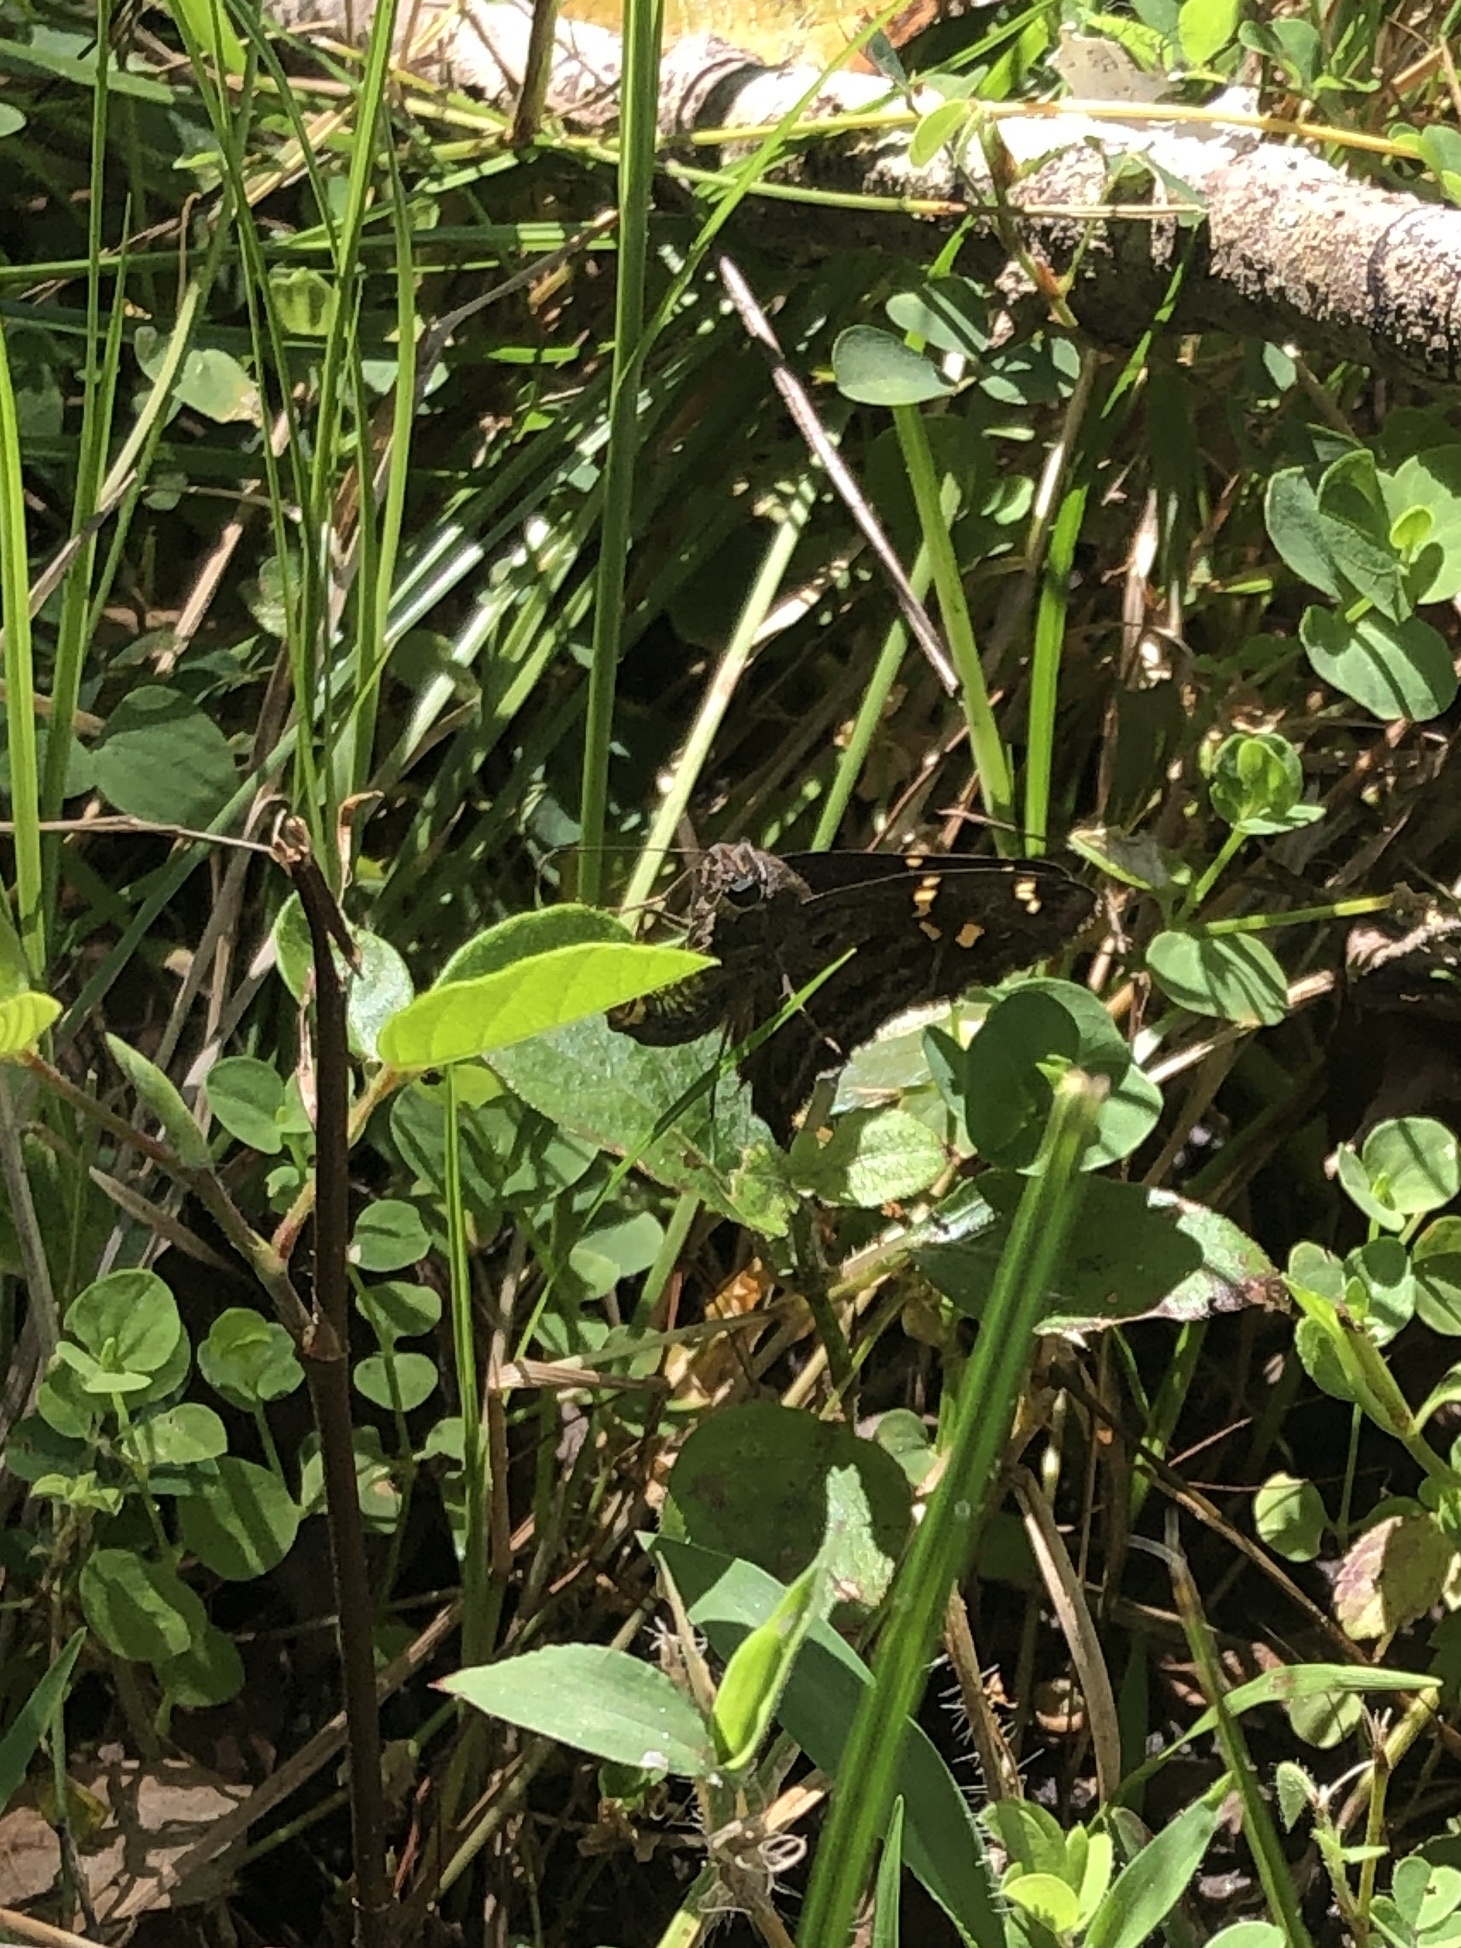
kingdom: Animalia
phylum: Arthropoda
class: Insecta
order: Lepidoptera
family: Hesperiidae
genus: Thorybes
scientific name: Thorybes
